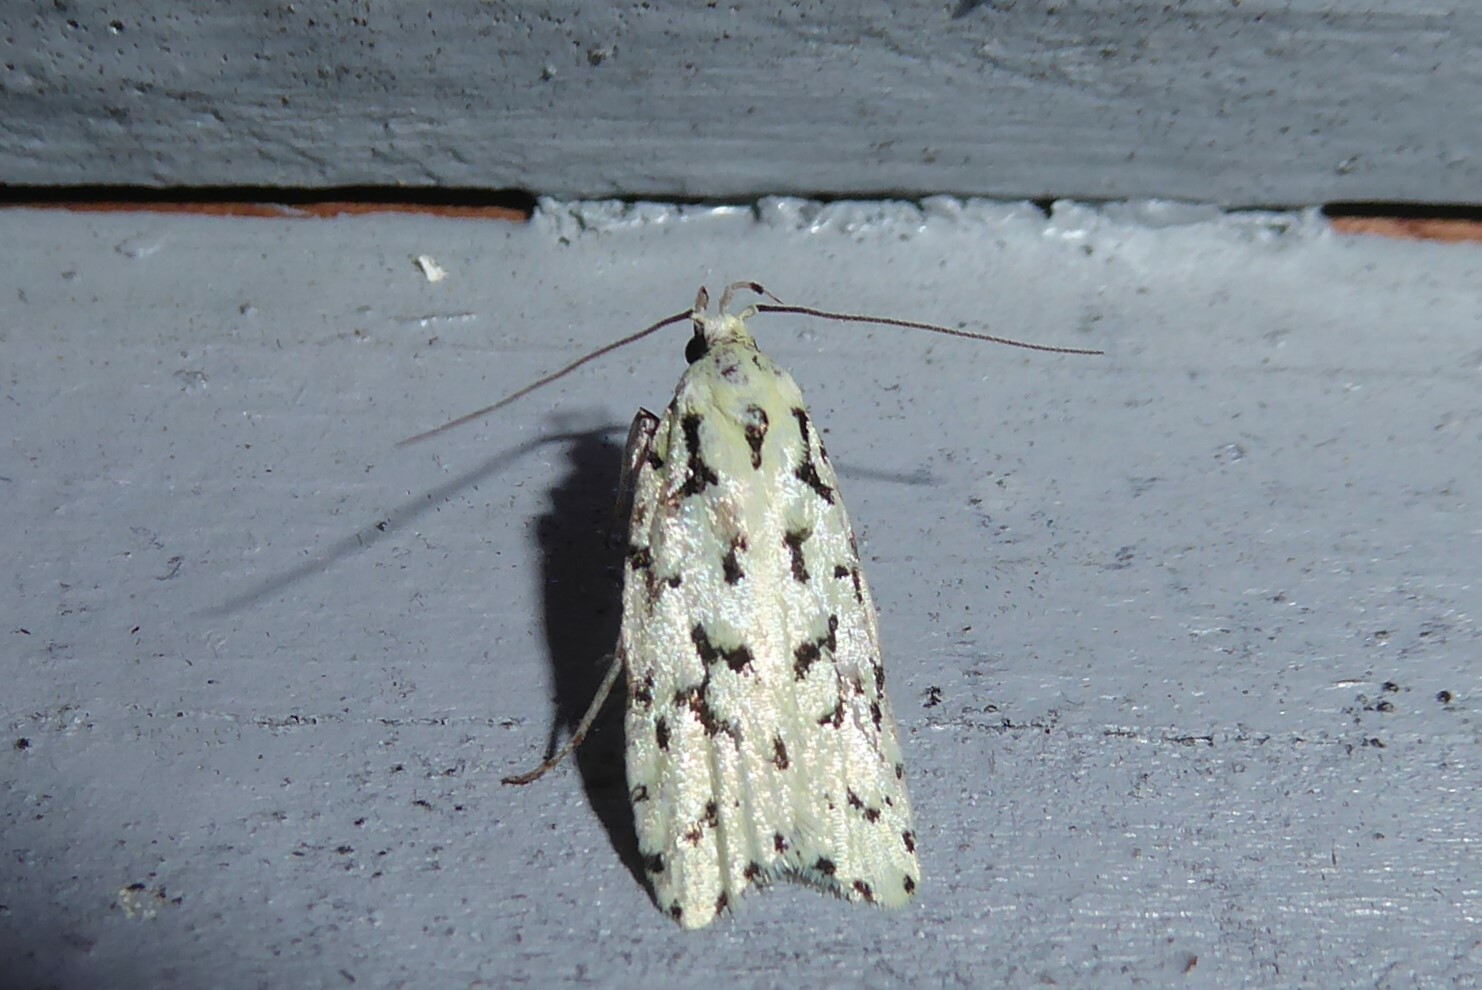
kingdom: Animalia
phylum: Arthropoda
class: Insecta
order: Lepidoptera
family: Oecophoridae
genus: Izatha
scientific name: Izatha huttoni
